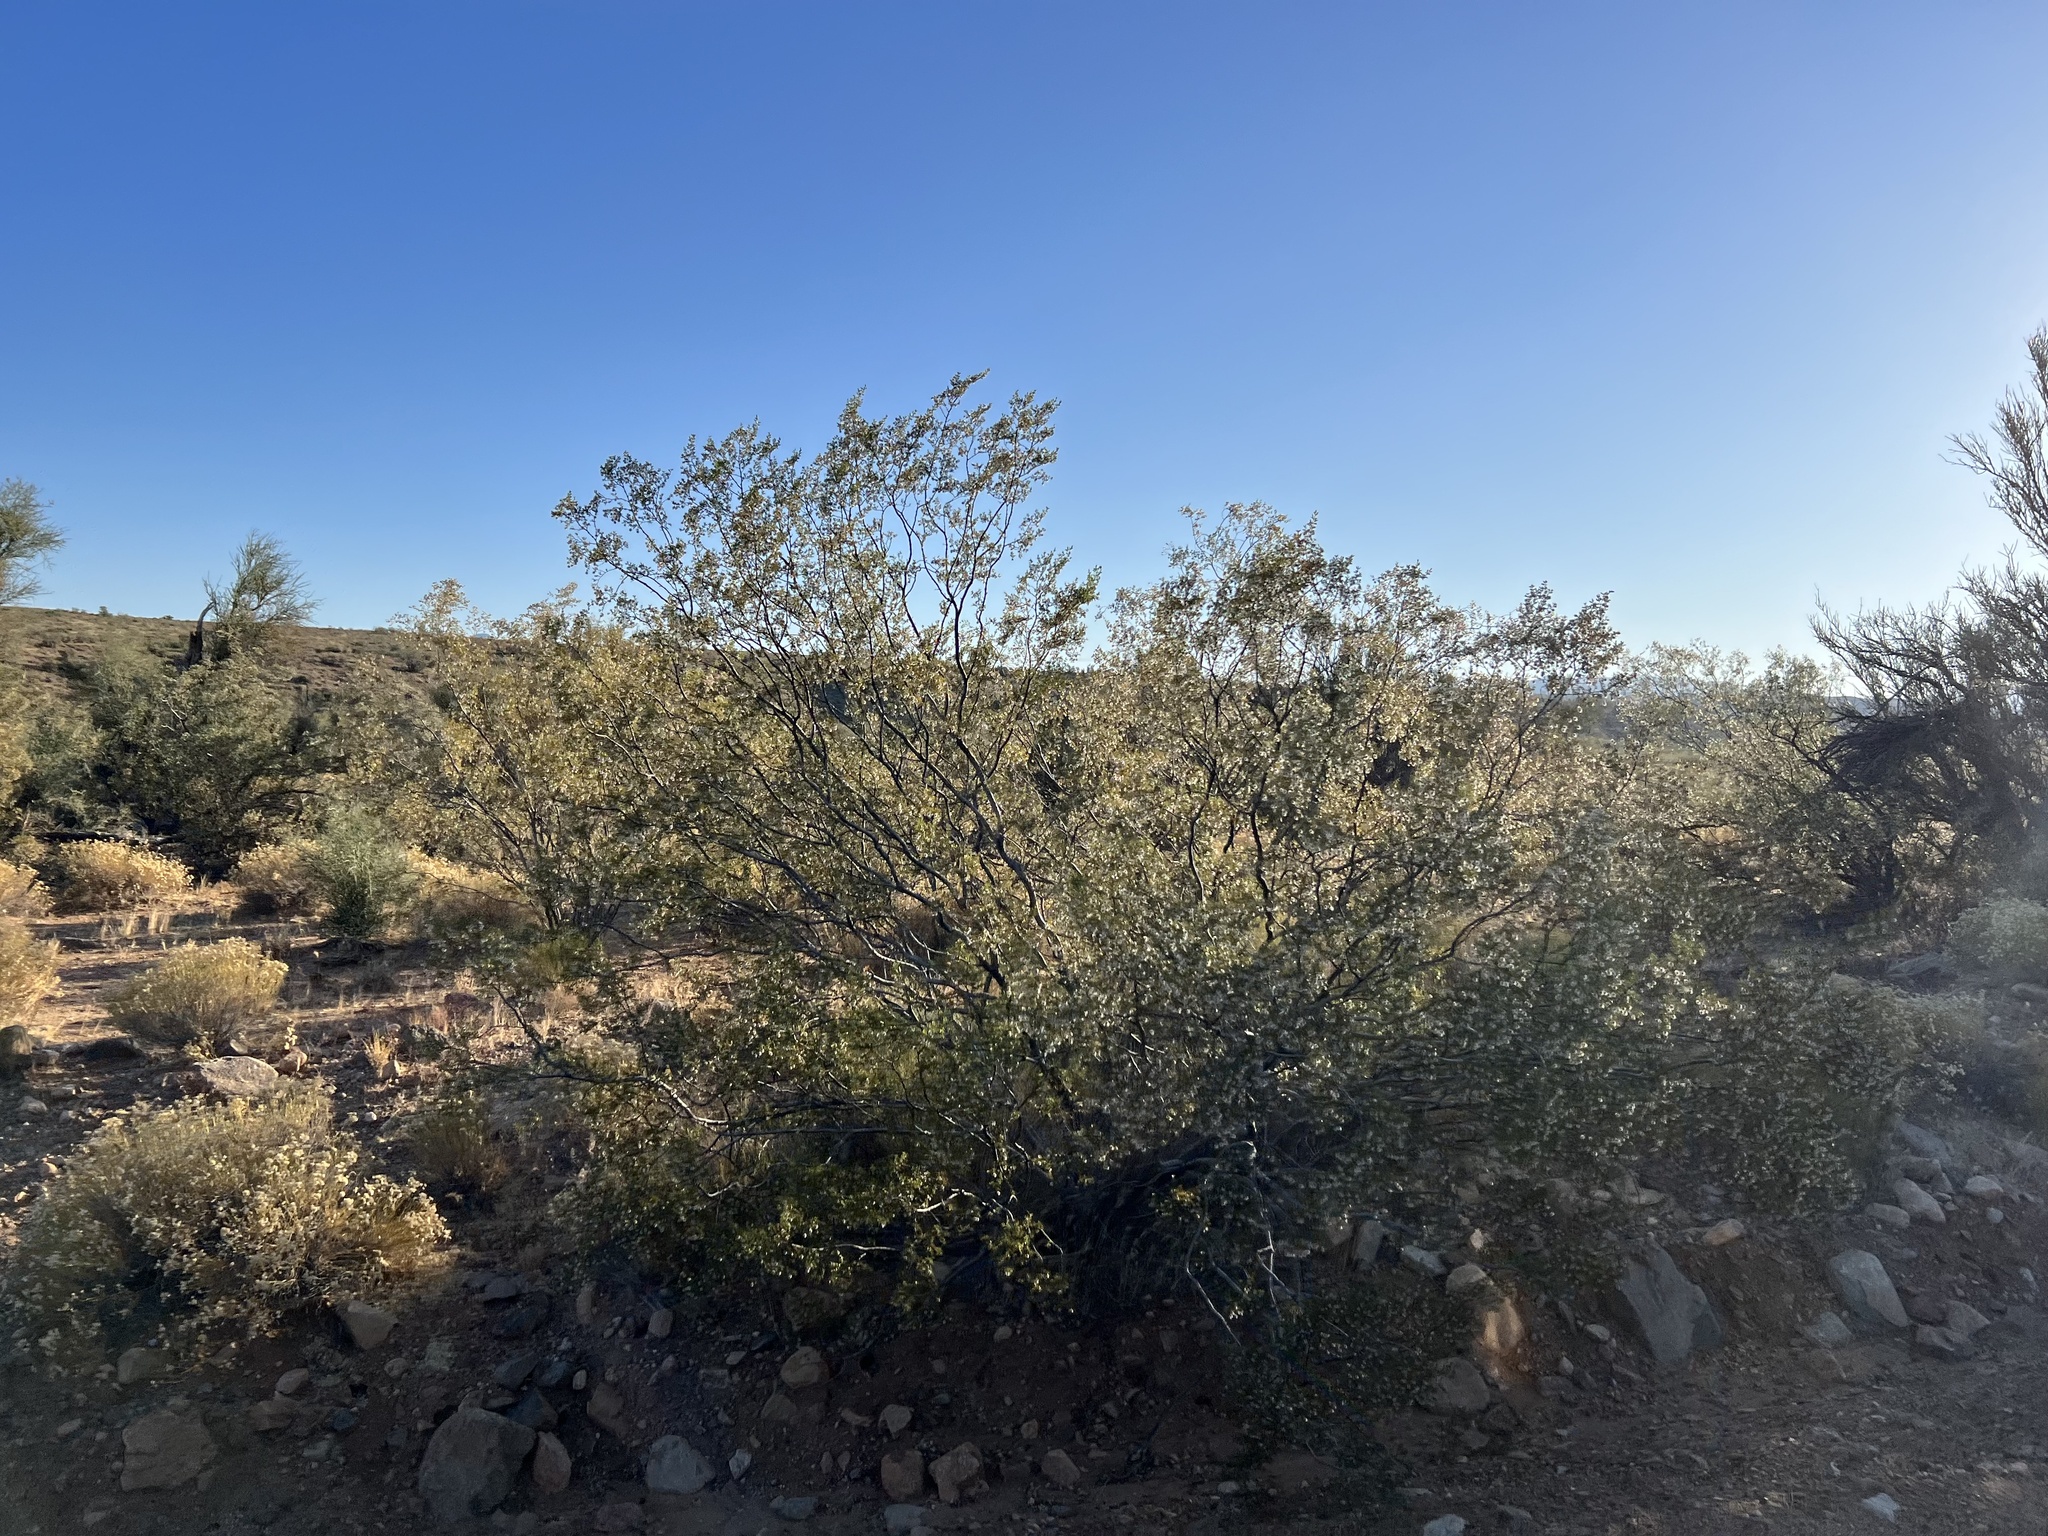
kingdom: Plantae
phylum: Tracheophyta
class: Magnoliopsida
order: Zygophyllales
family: Zygophyllaceae
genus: Larrea
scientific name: Larrea tridentata
